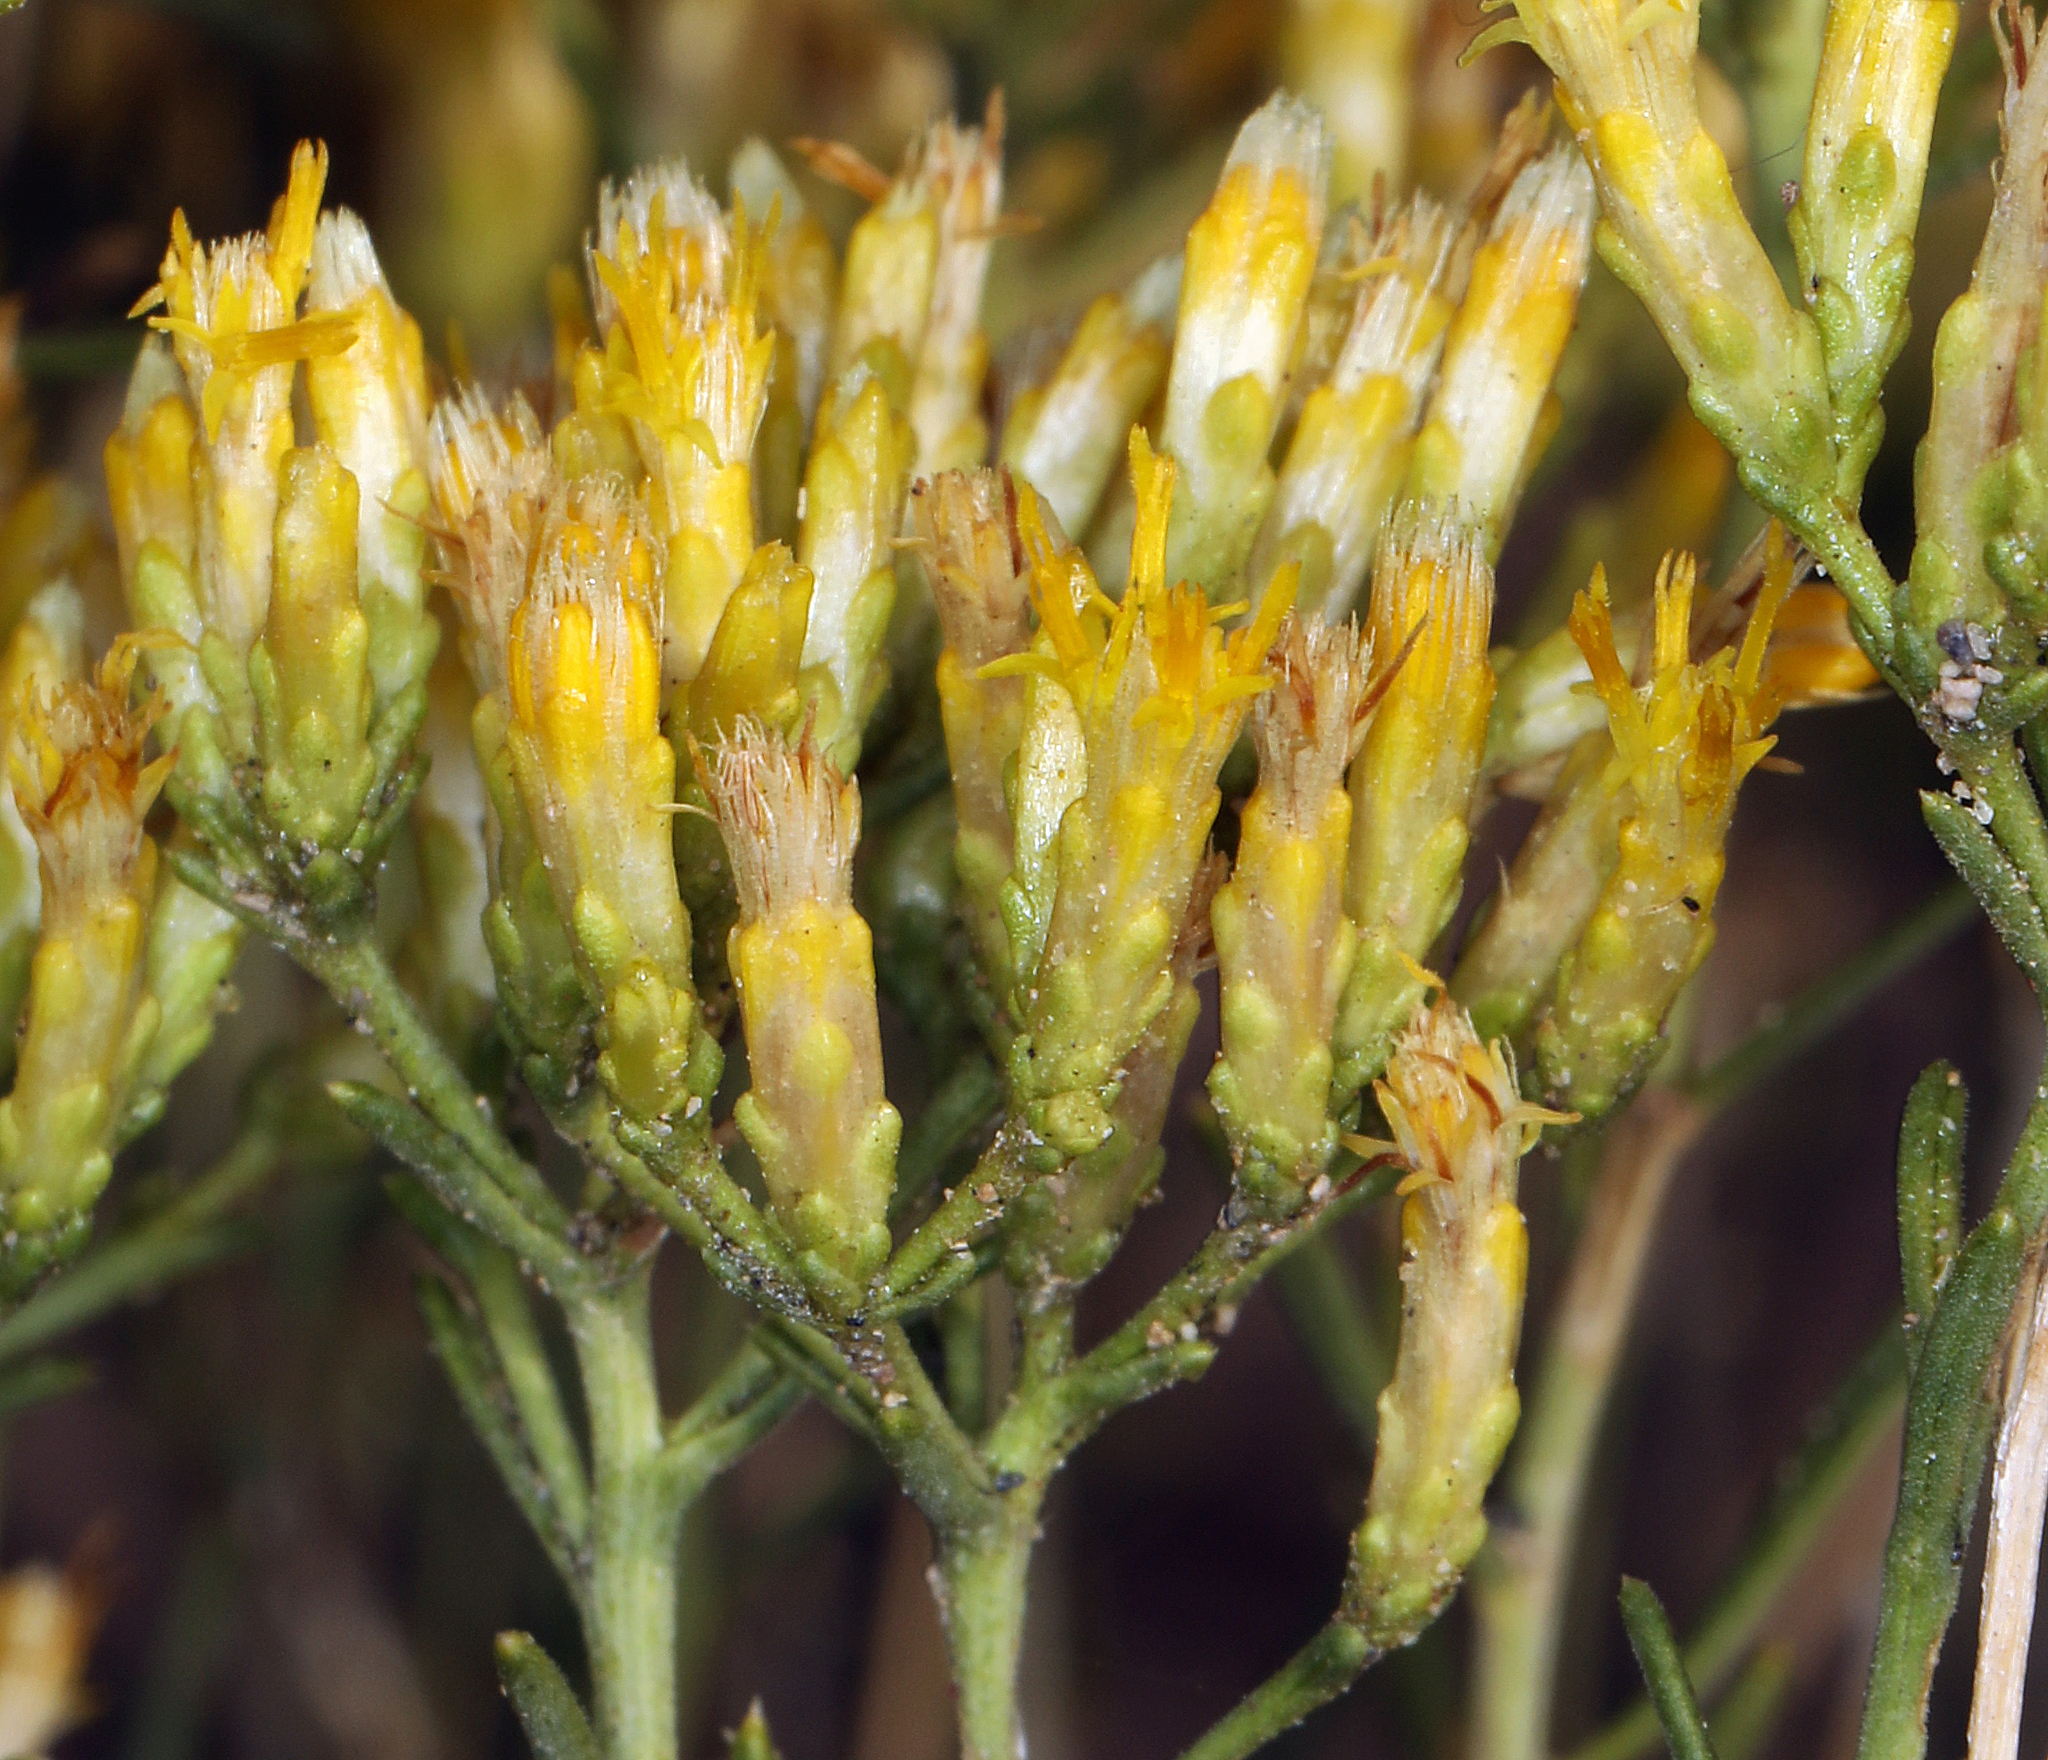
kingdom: Plantae
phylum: Tracheophyta
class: Magnoliopsida
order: Asterales
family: Asteraceae
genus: Chrysothamnus
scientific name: Chrysothamnus viscidiflorus
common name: Yellow rabbitbrush
